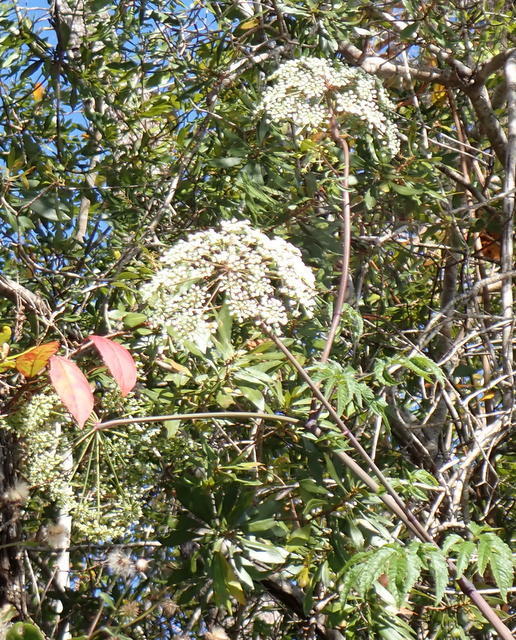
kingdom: Plantae
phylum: Tracheophyta
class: Magnoliopsida
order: Apiales
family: Apiaceae
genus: Cicuta
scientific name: Cicuta maculata
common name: Spotted cowbane
